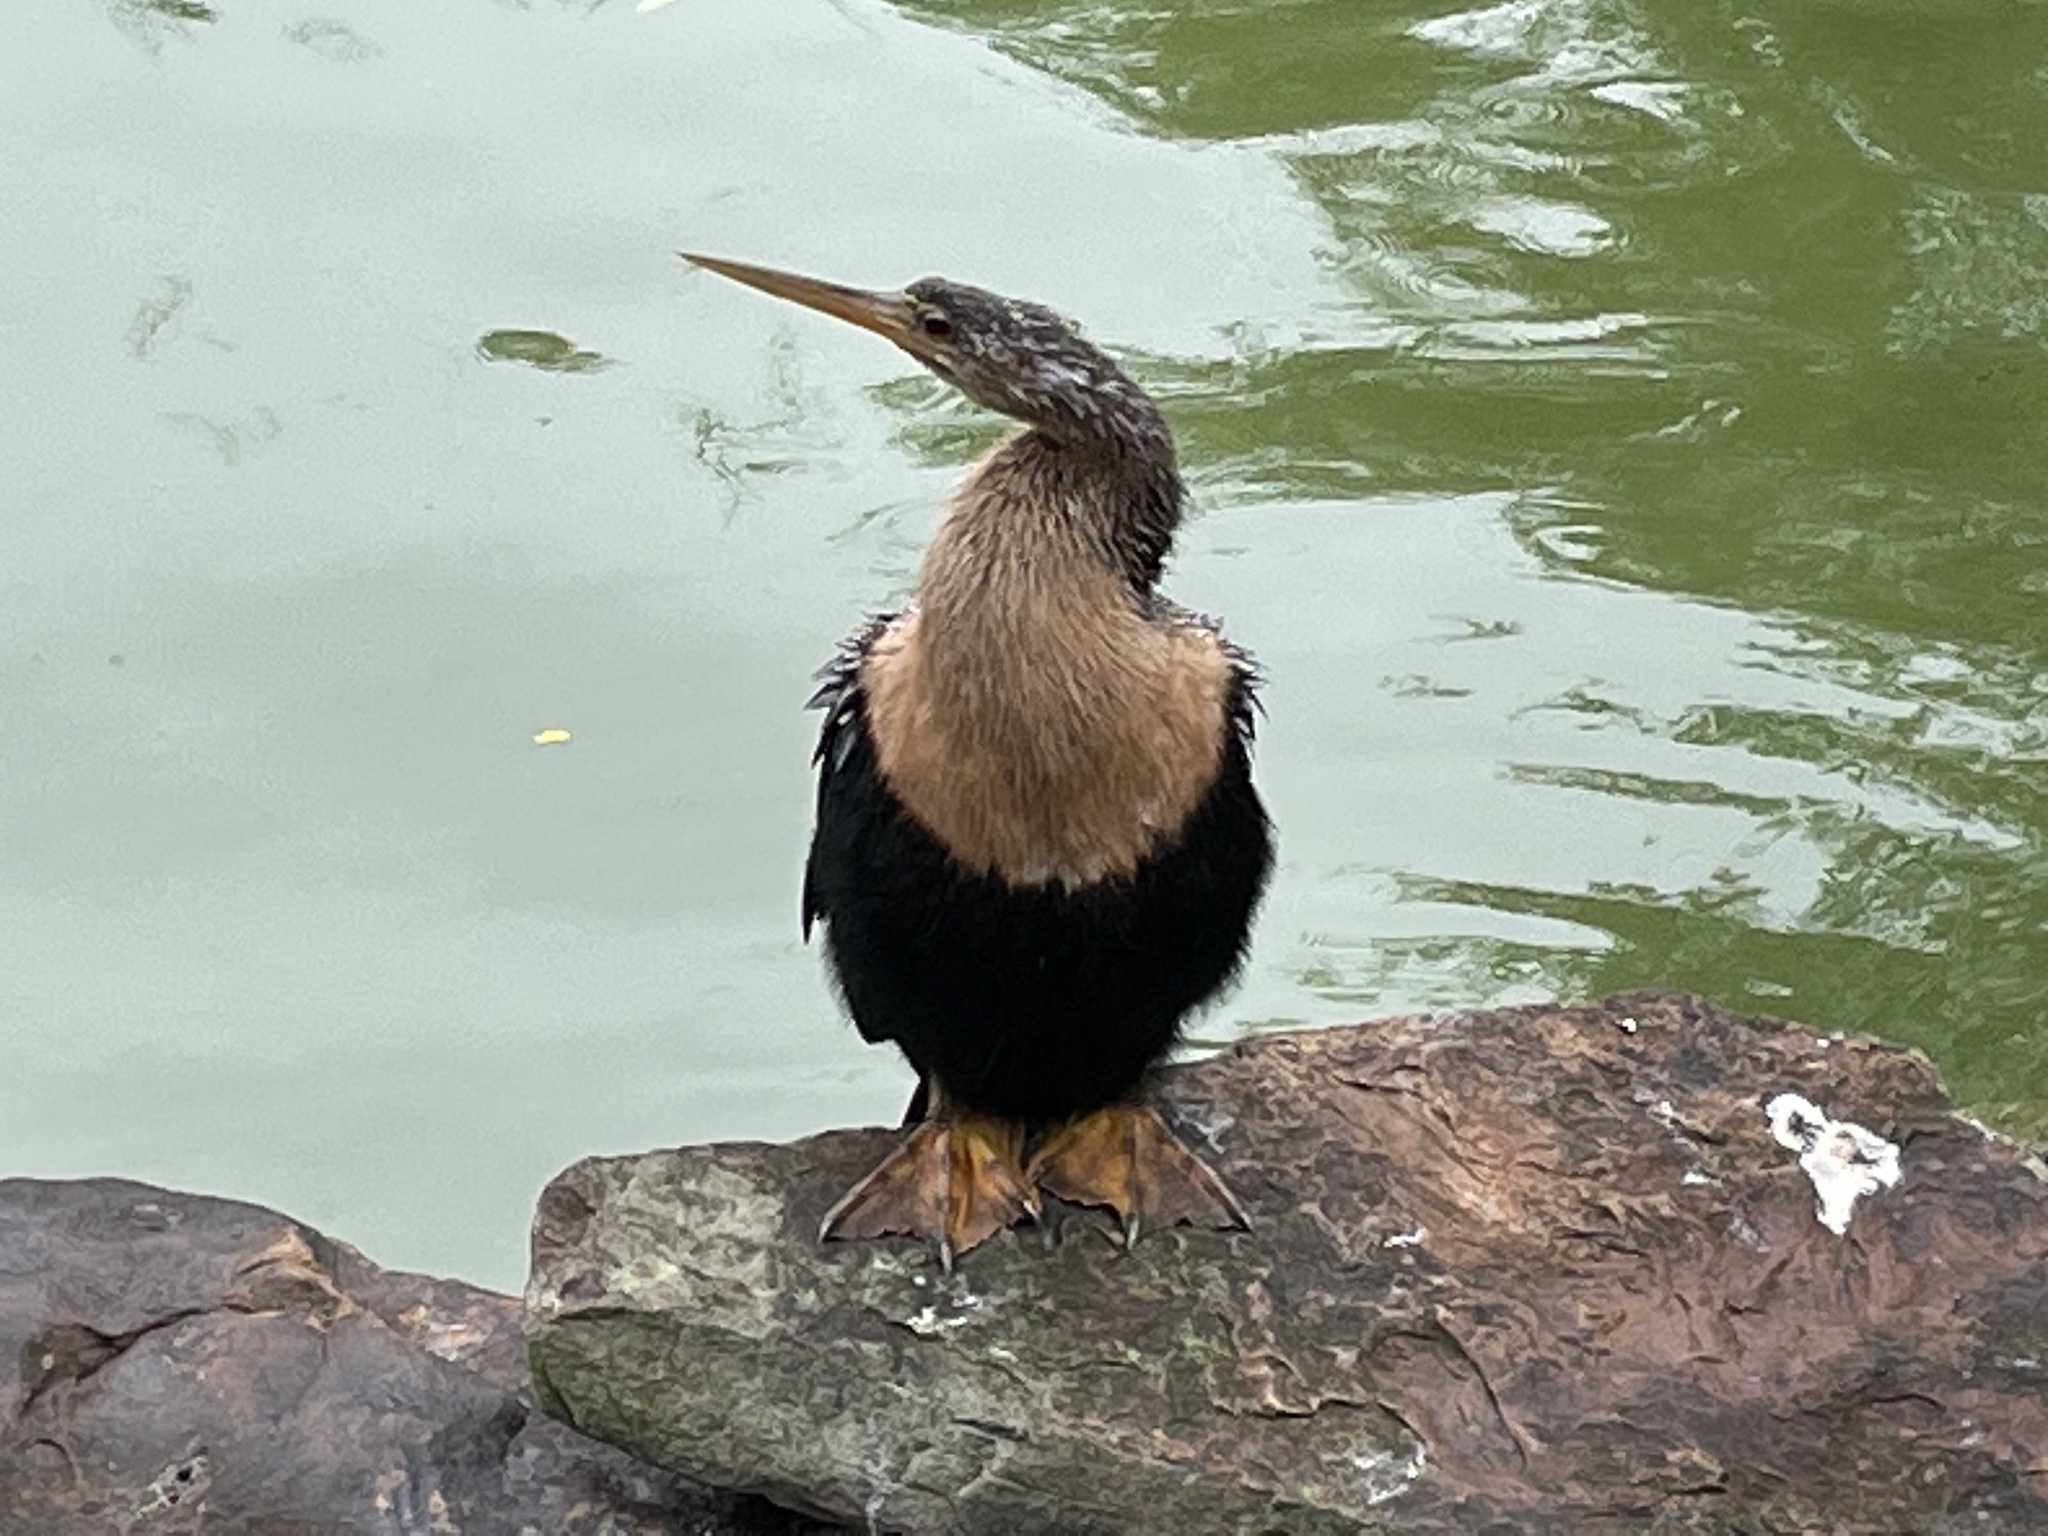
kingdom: Animalia
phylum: Chordata
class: Aves
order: Suliformes
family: Anhingidae
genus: Anhinga
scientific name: Anhinga anhinga
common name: Anhinga
